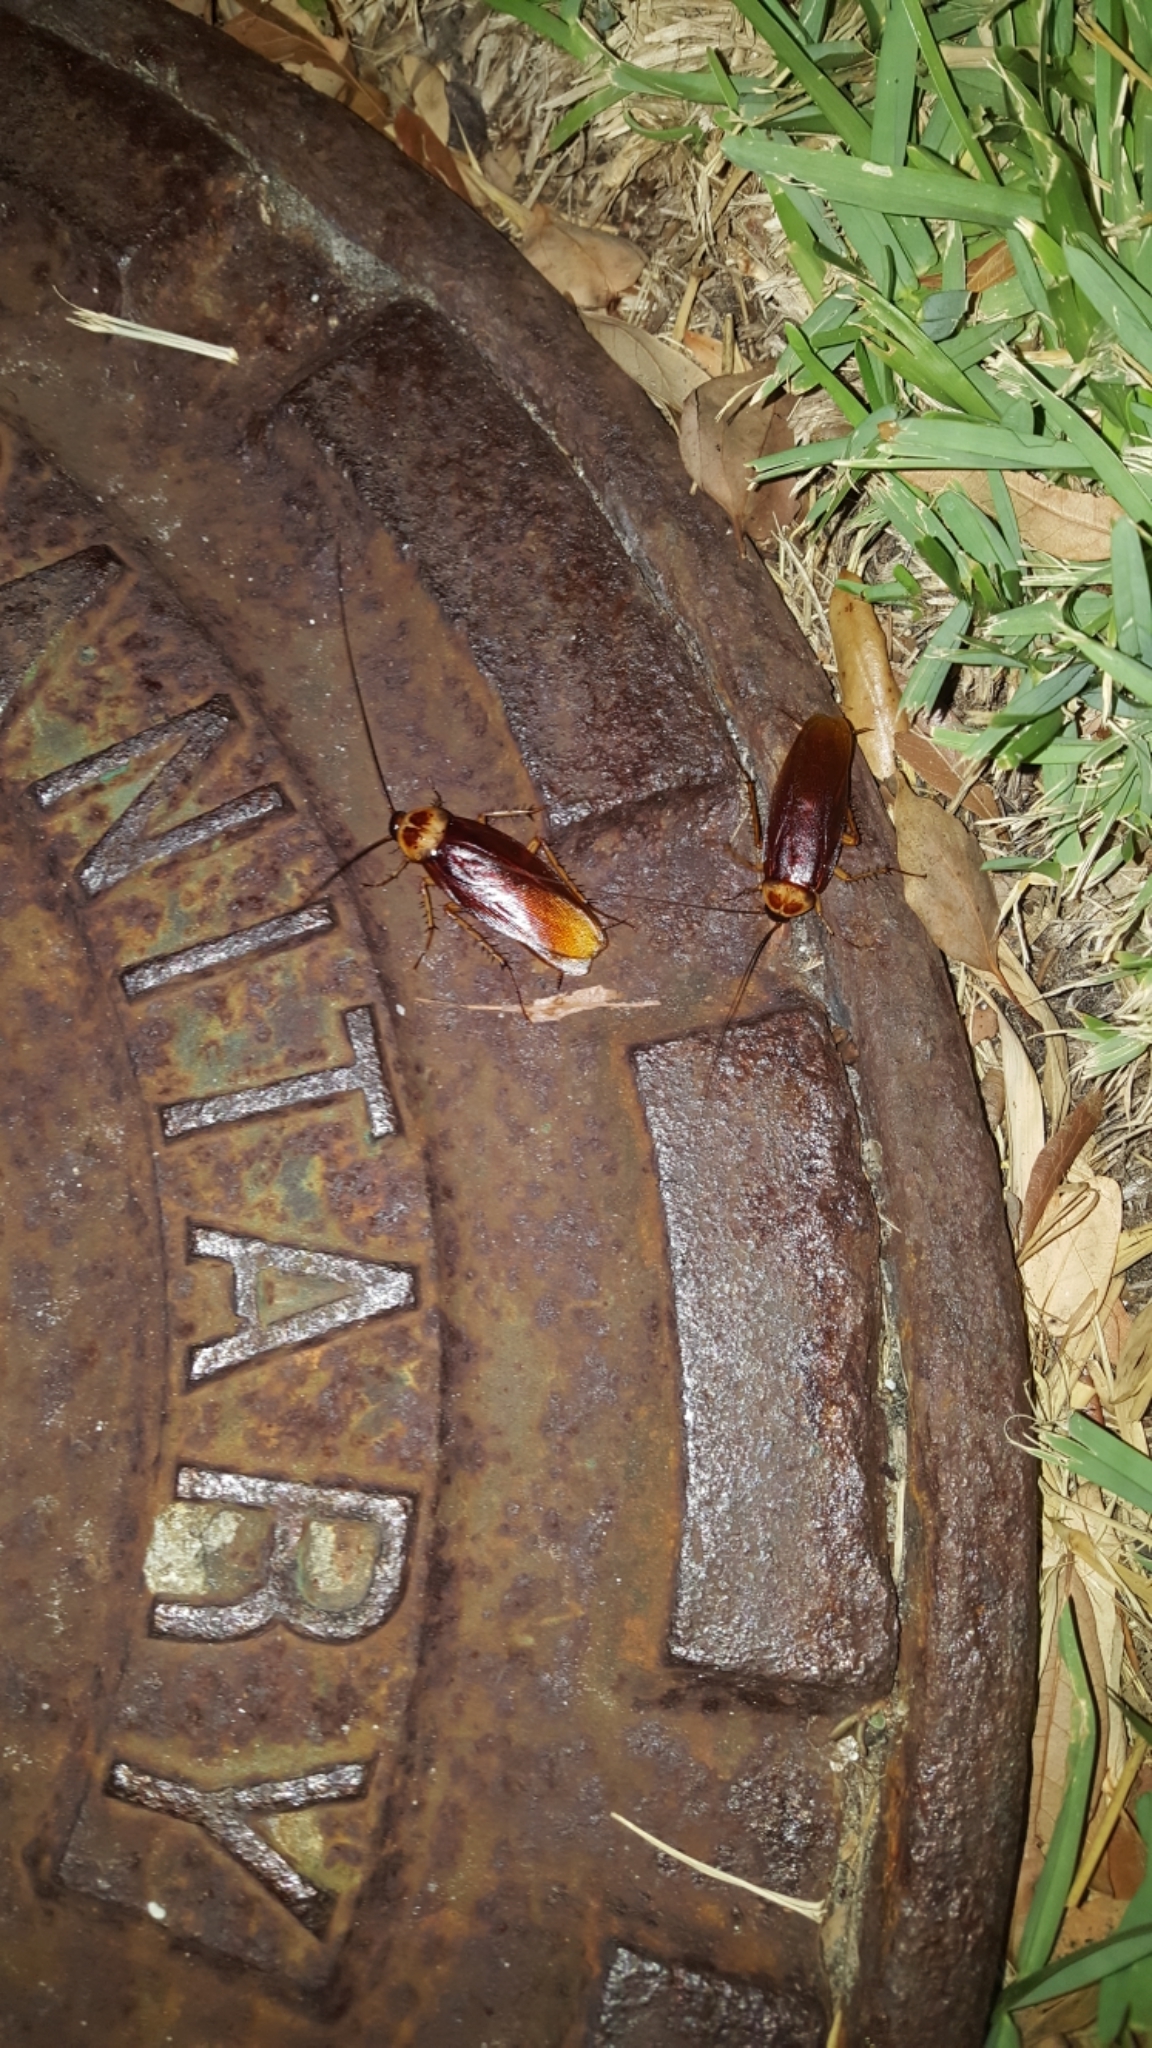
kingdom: Animalia
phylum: Arthropoda
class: Insecta
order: Blattodea
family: Blattidae
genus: Periplaneta
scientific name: Periplaneta americana
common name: American cockroach
